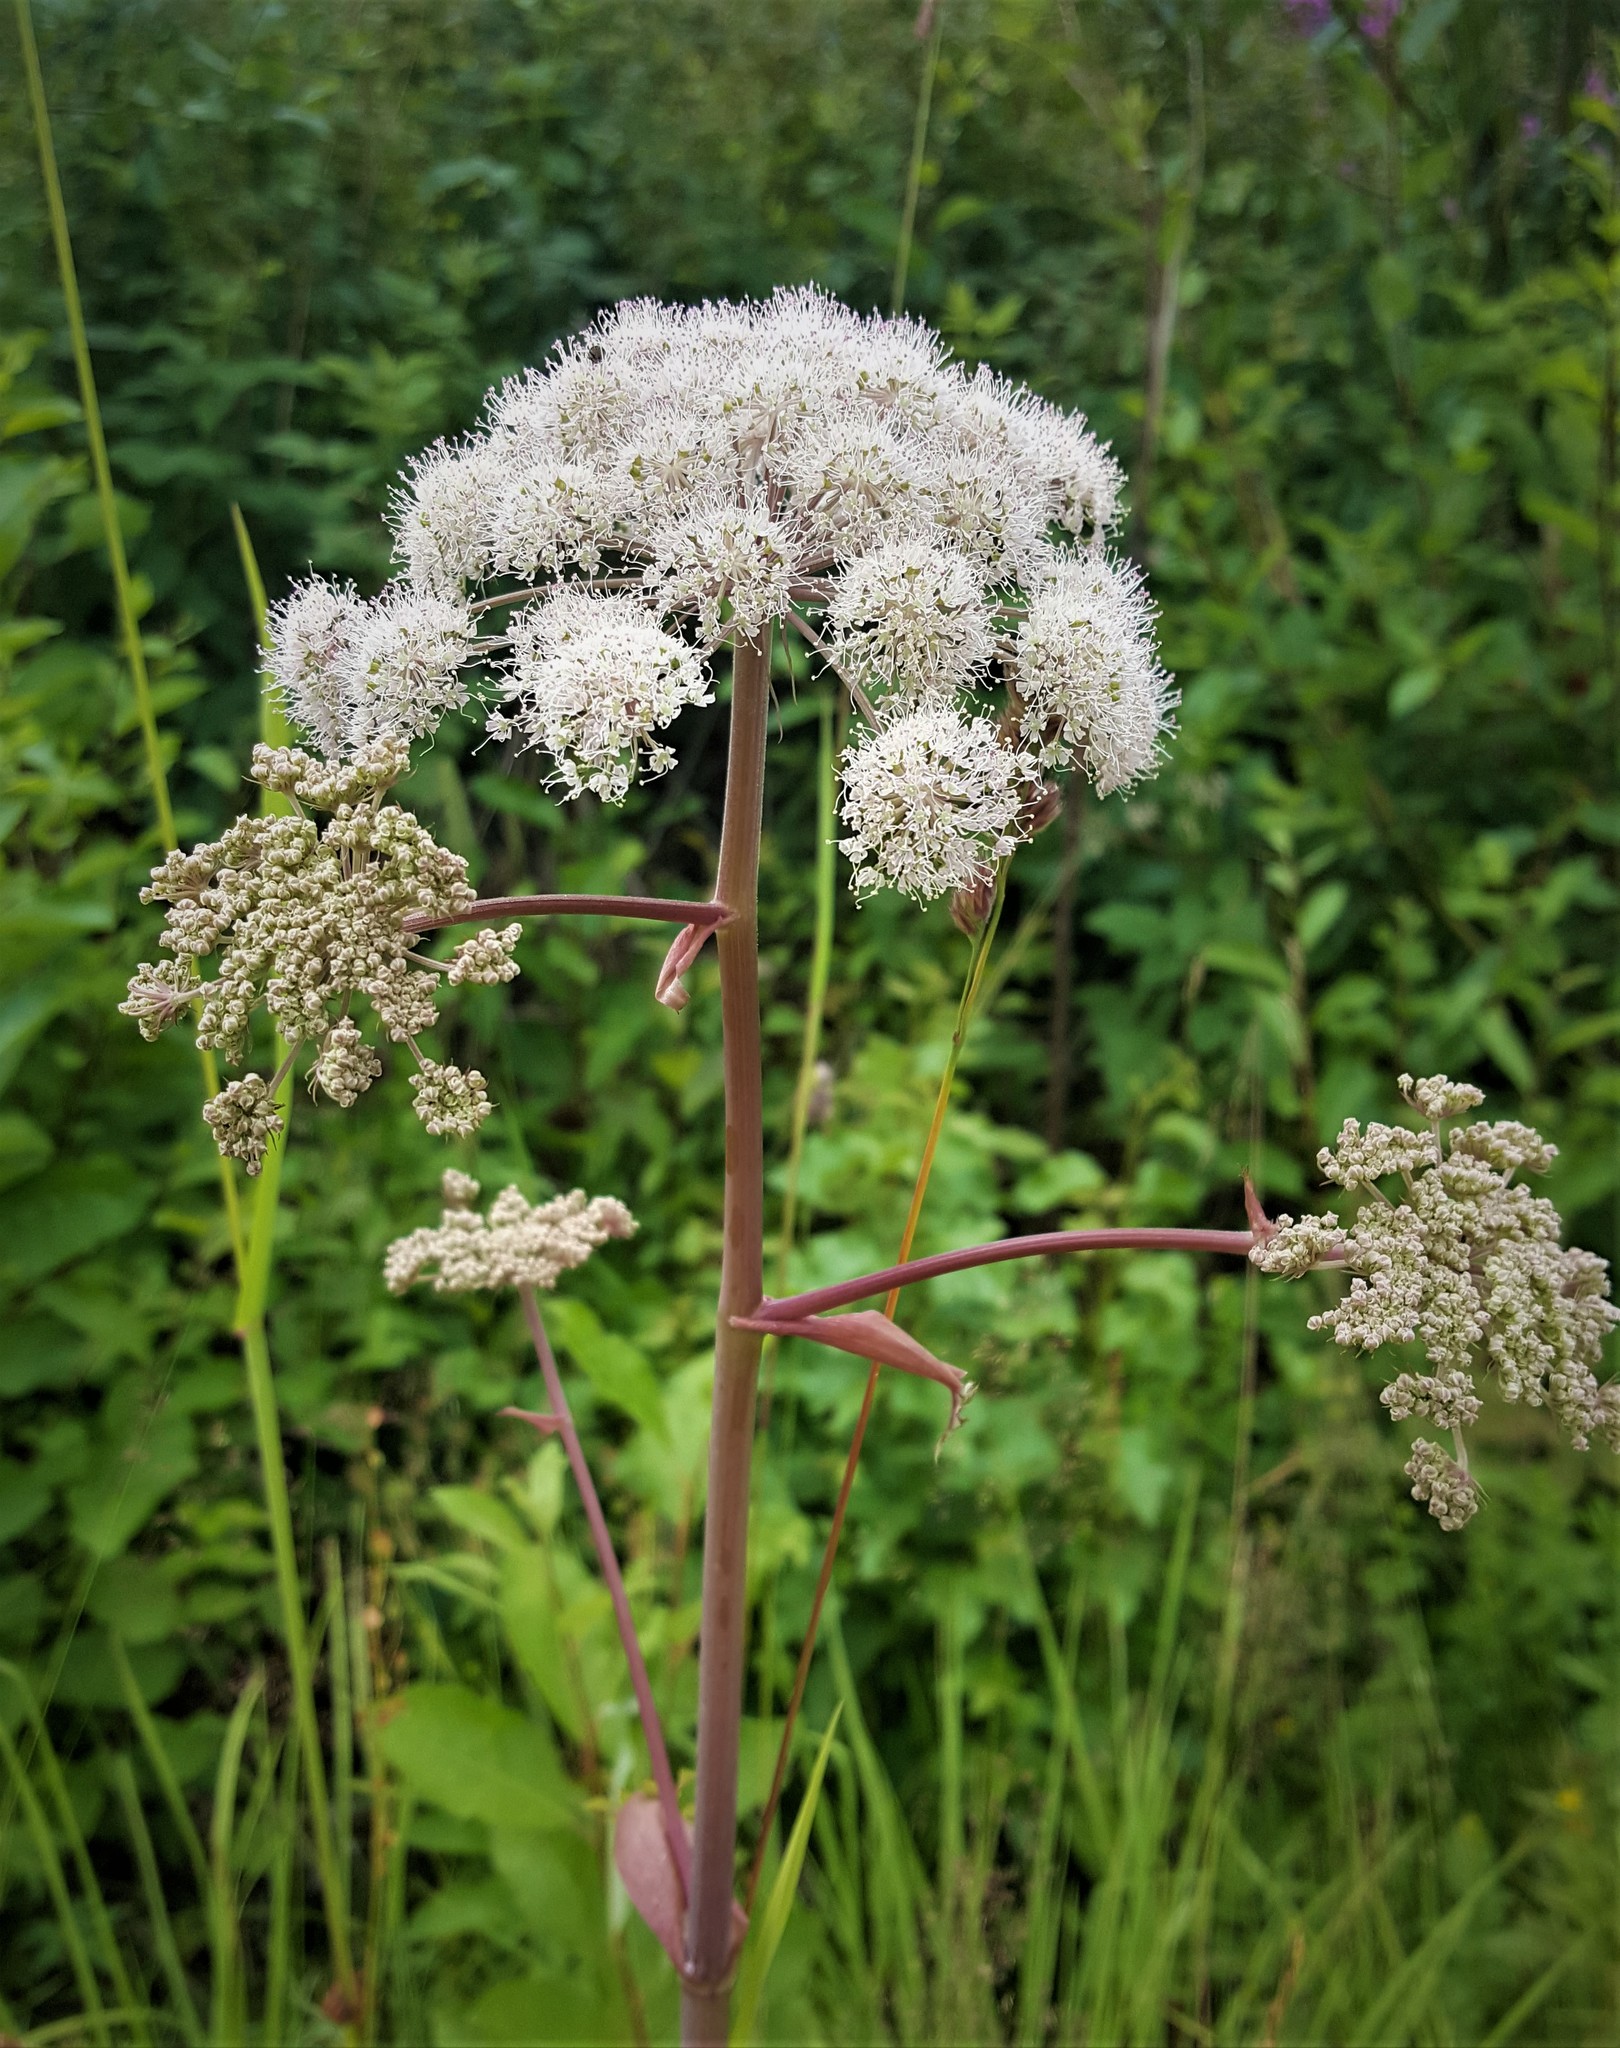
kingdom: Plantae
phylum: Tracheophyta
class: Magnoliopsida
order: Apiales
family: Apiaceae
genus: Angelica
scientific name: Angelica sylvestris
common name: Wild angelica
